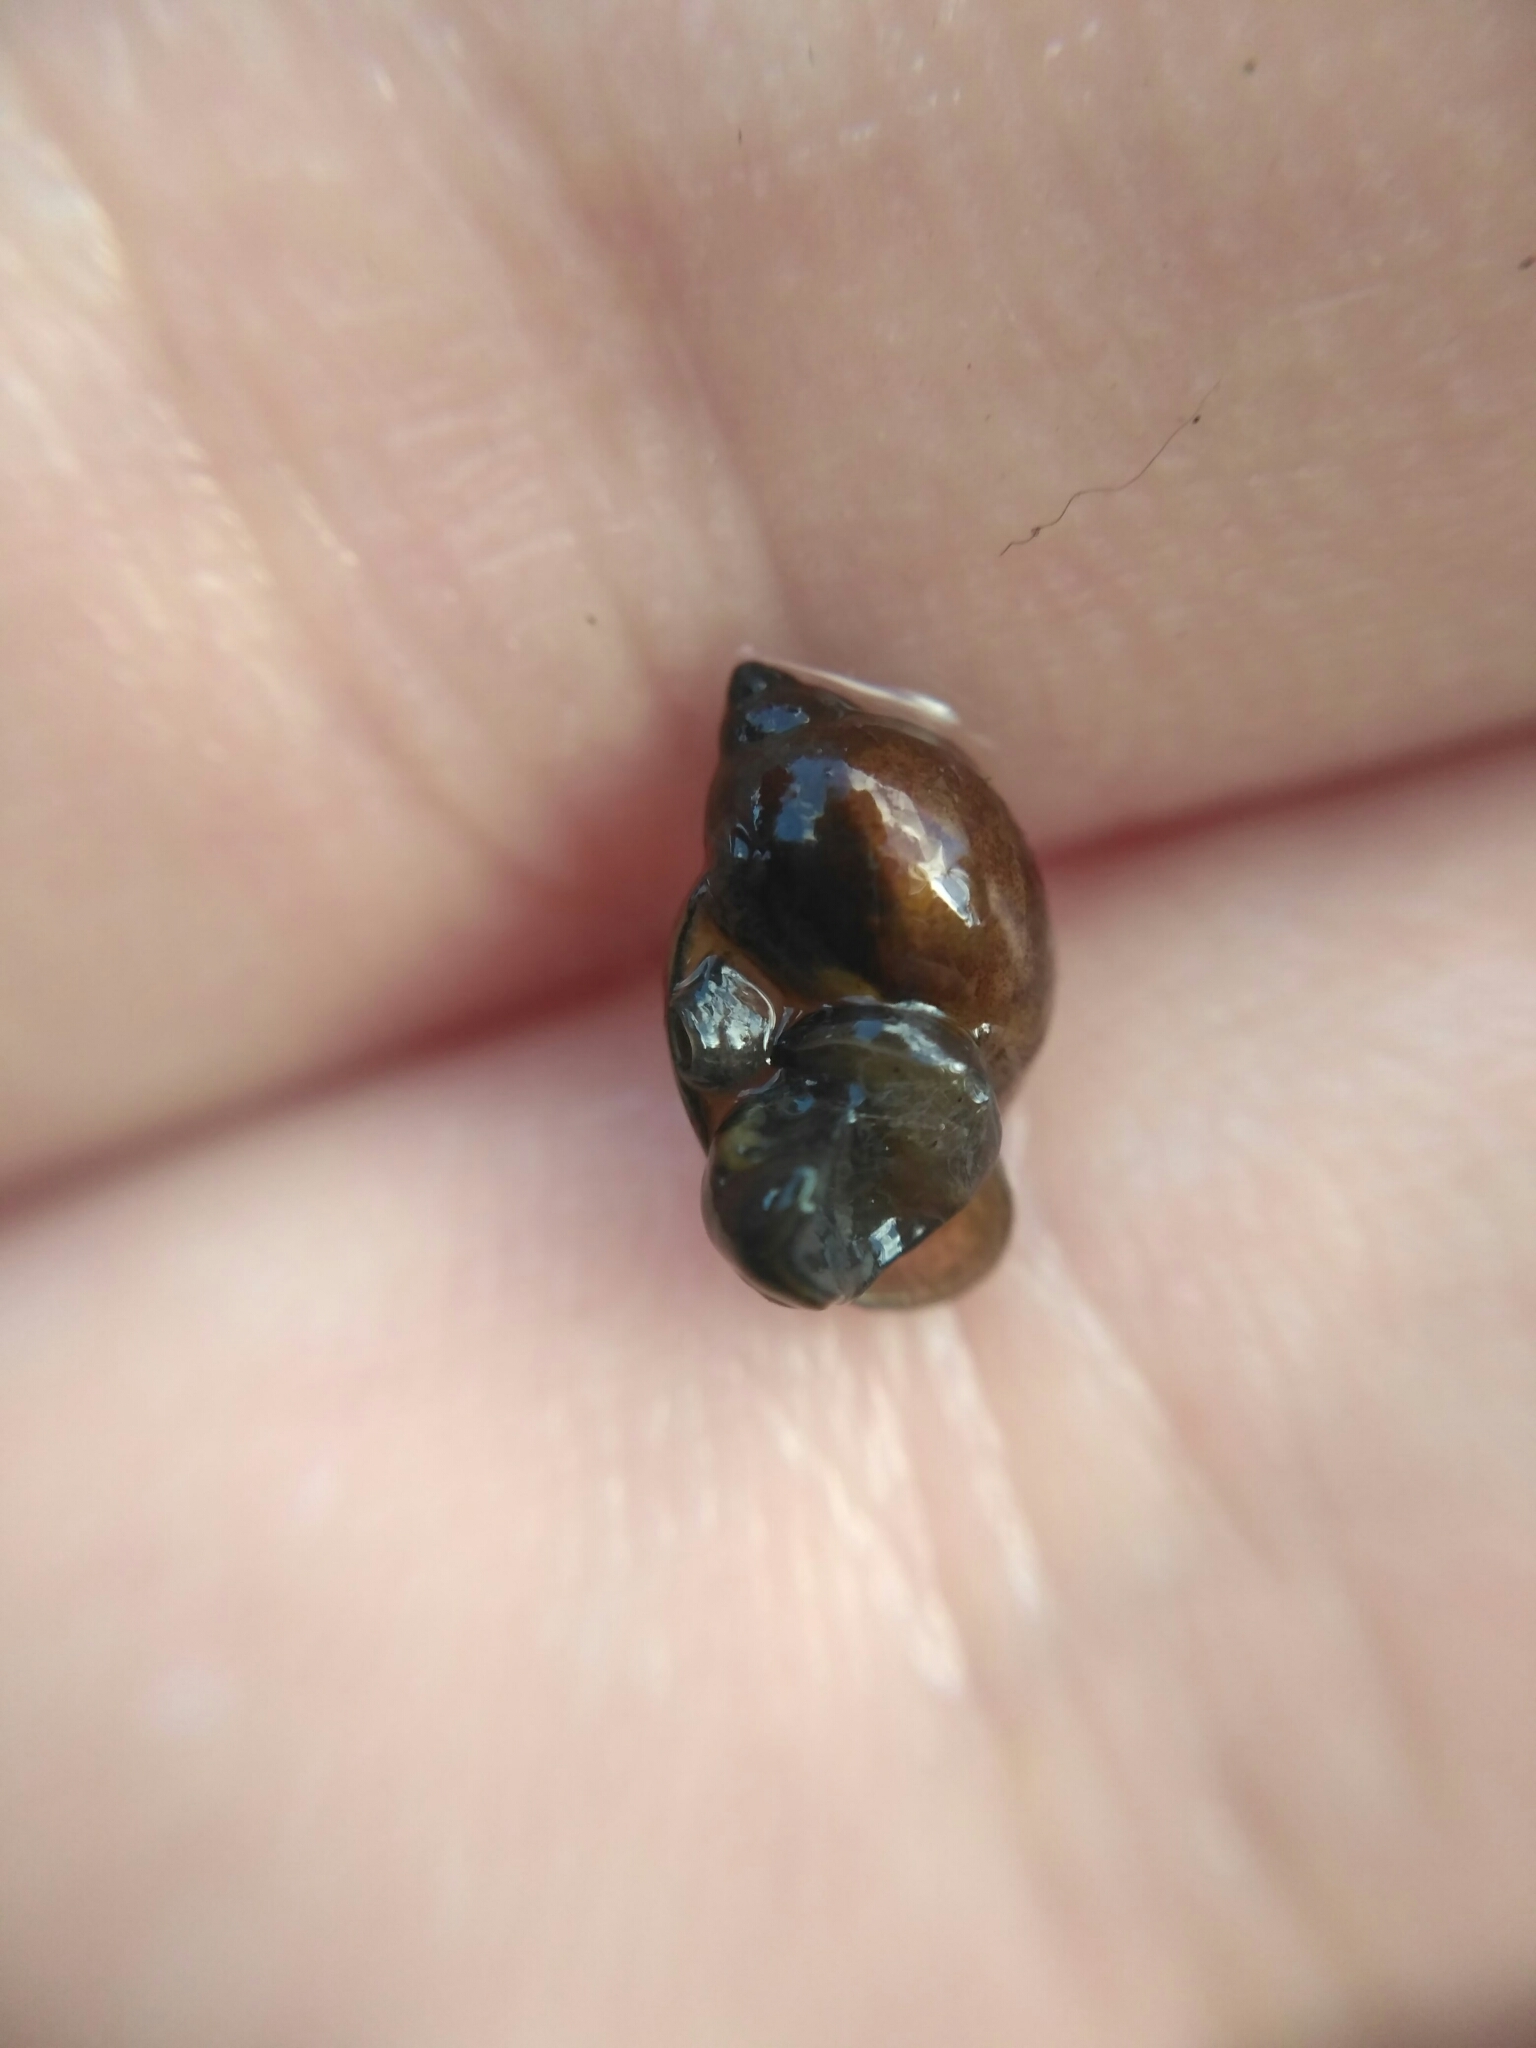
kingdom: Animalia
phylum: Mollusca
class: Gastropoda
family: Physidae
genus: Physella
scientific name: Physella acuta
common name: European physa
